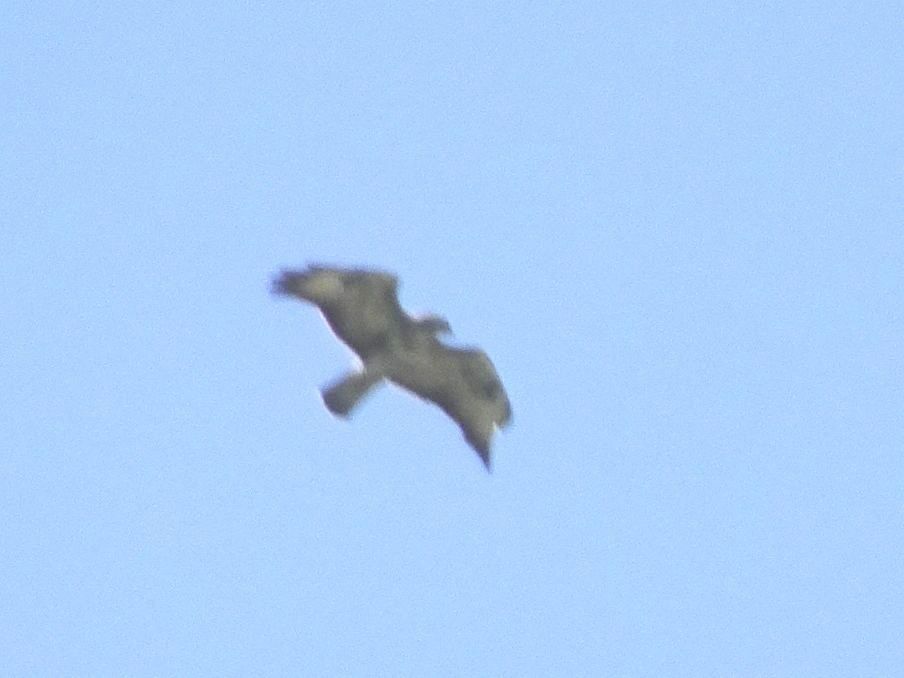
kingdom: Animalia
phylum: Chordata
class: Aves
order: Accipitriformes
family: Accipitridae
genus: Buteo
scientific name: Buteo buteo
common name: Common buzzard
